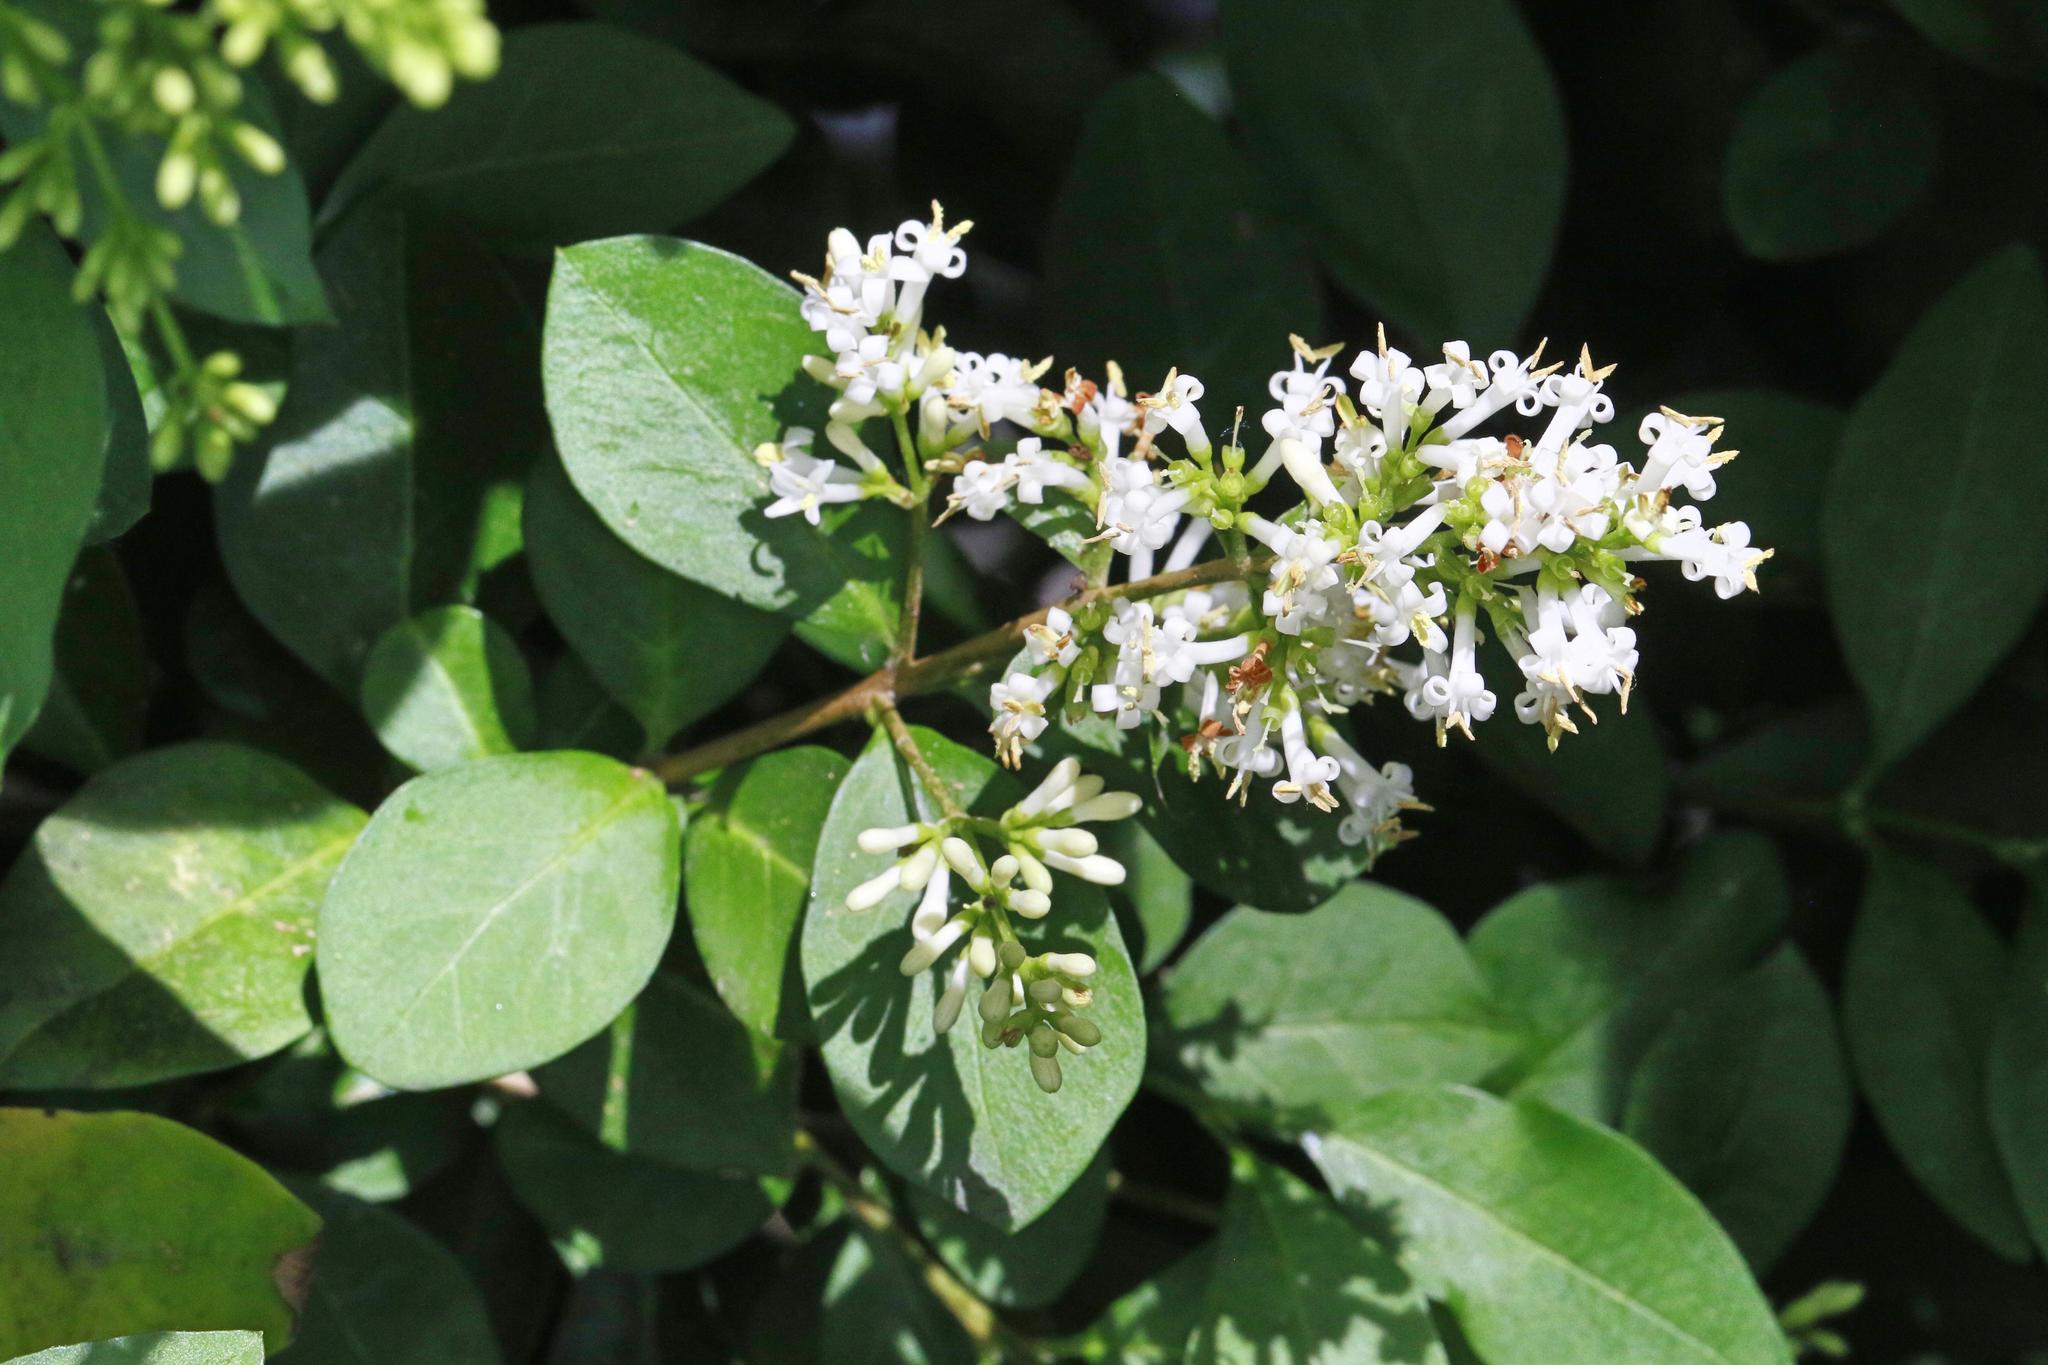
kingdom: Plantae
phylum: Tracheophyta
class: Magnoliopsida
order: Lamiales
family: Oleaceae
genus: Ligustrum
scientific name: Ligustrum ovalifolium
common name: California privet
